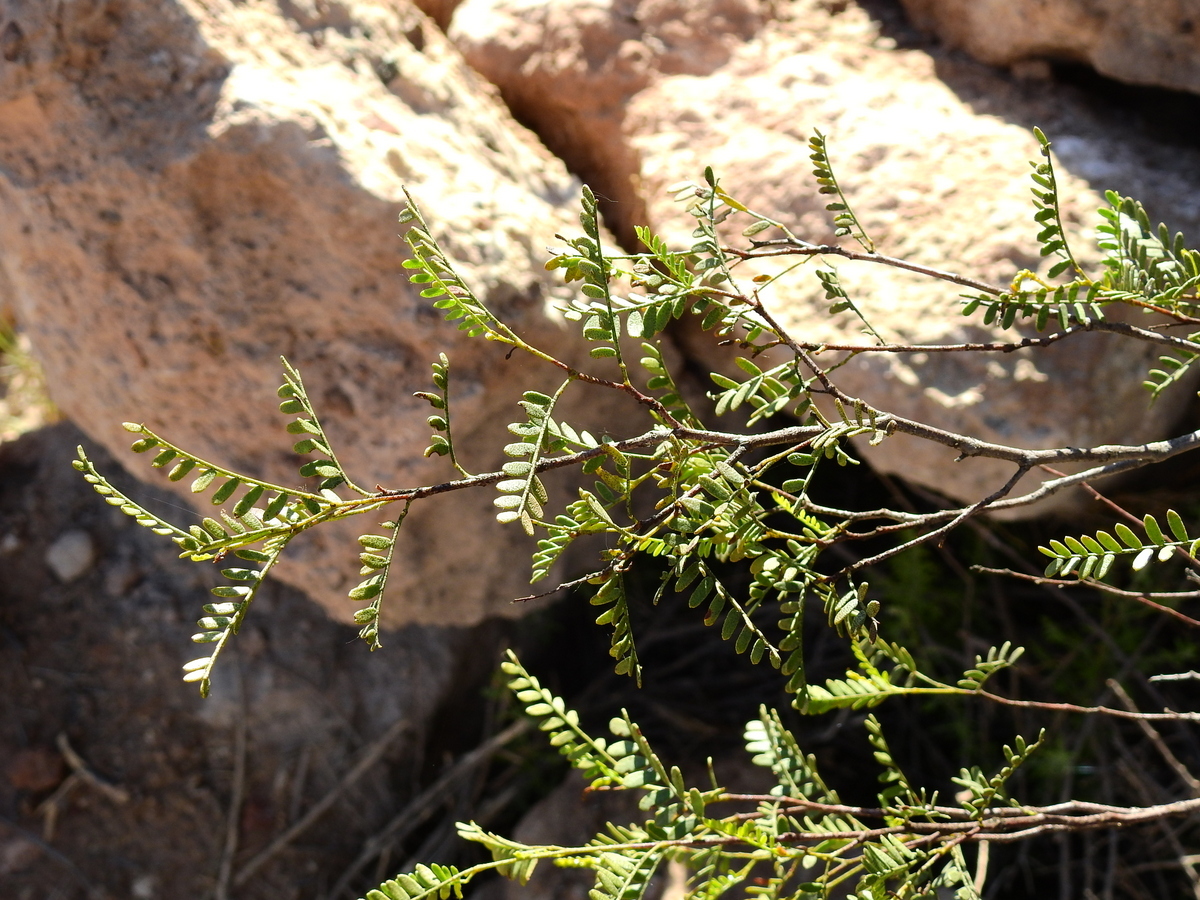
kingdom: Plantae
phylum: Tracheophyta
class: Magnoliopsida
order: Fabales
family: Fabaceae
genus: Zuccagnia
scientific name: Zuccagnia punctata
